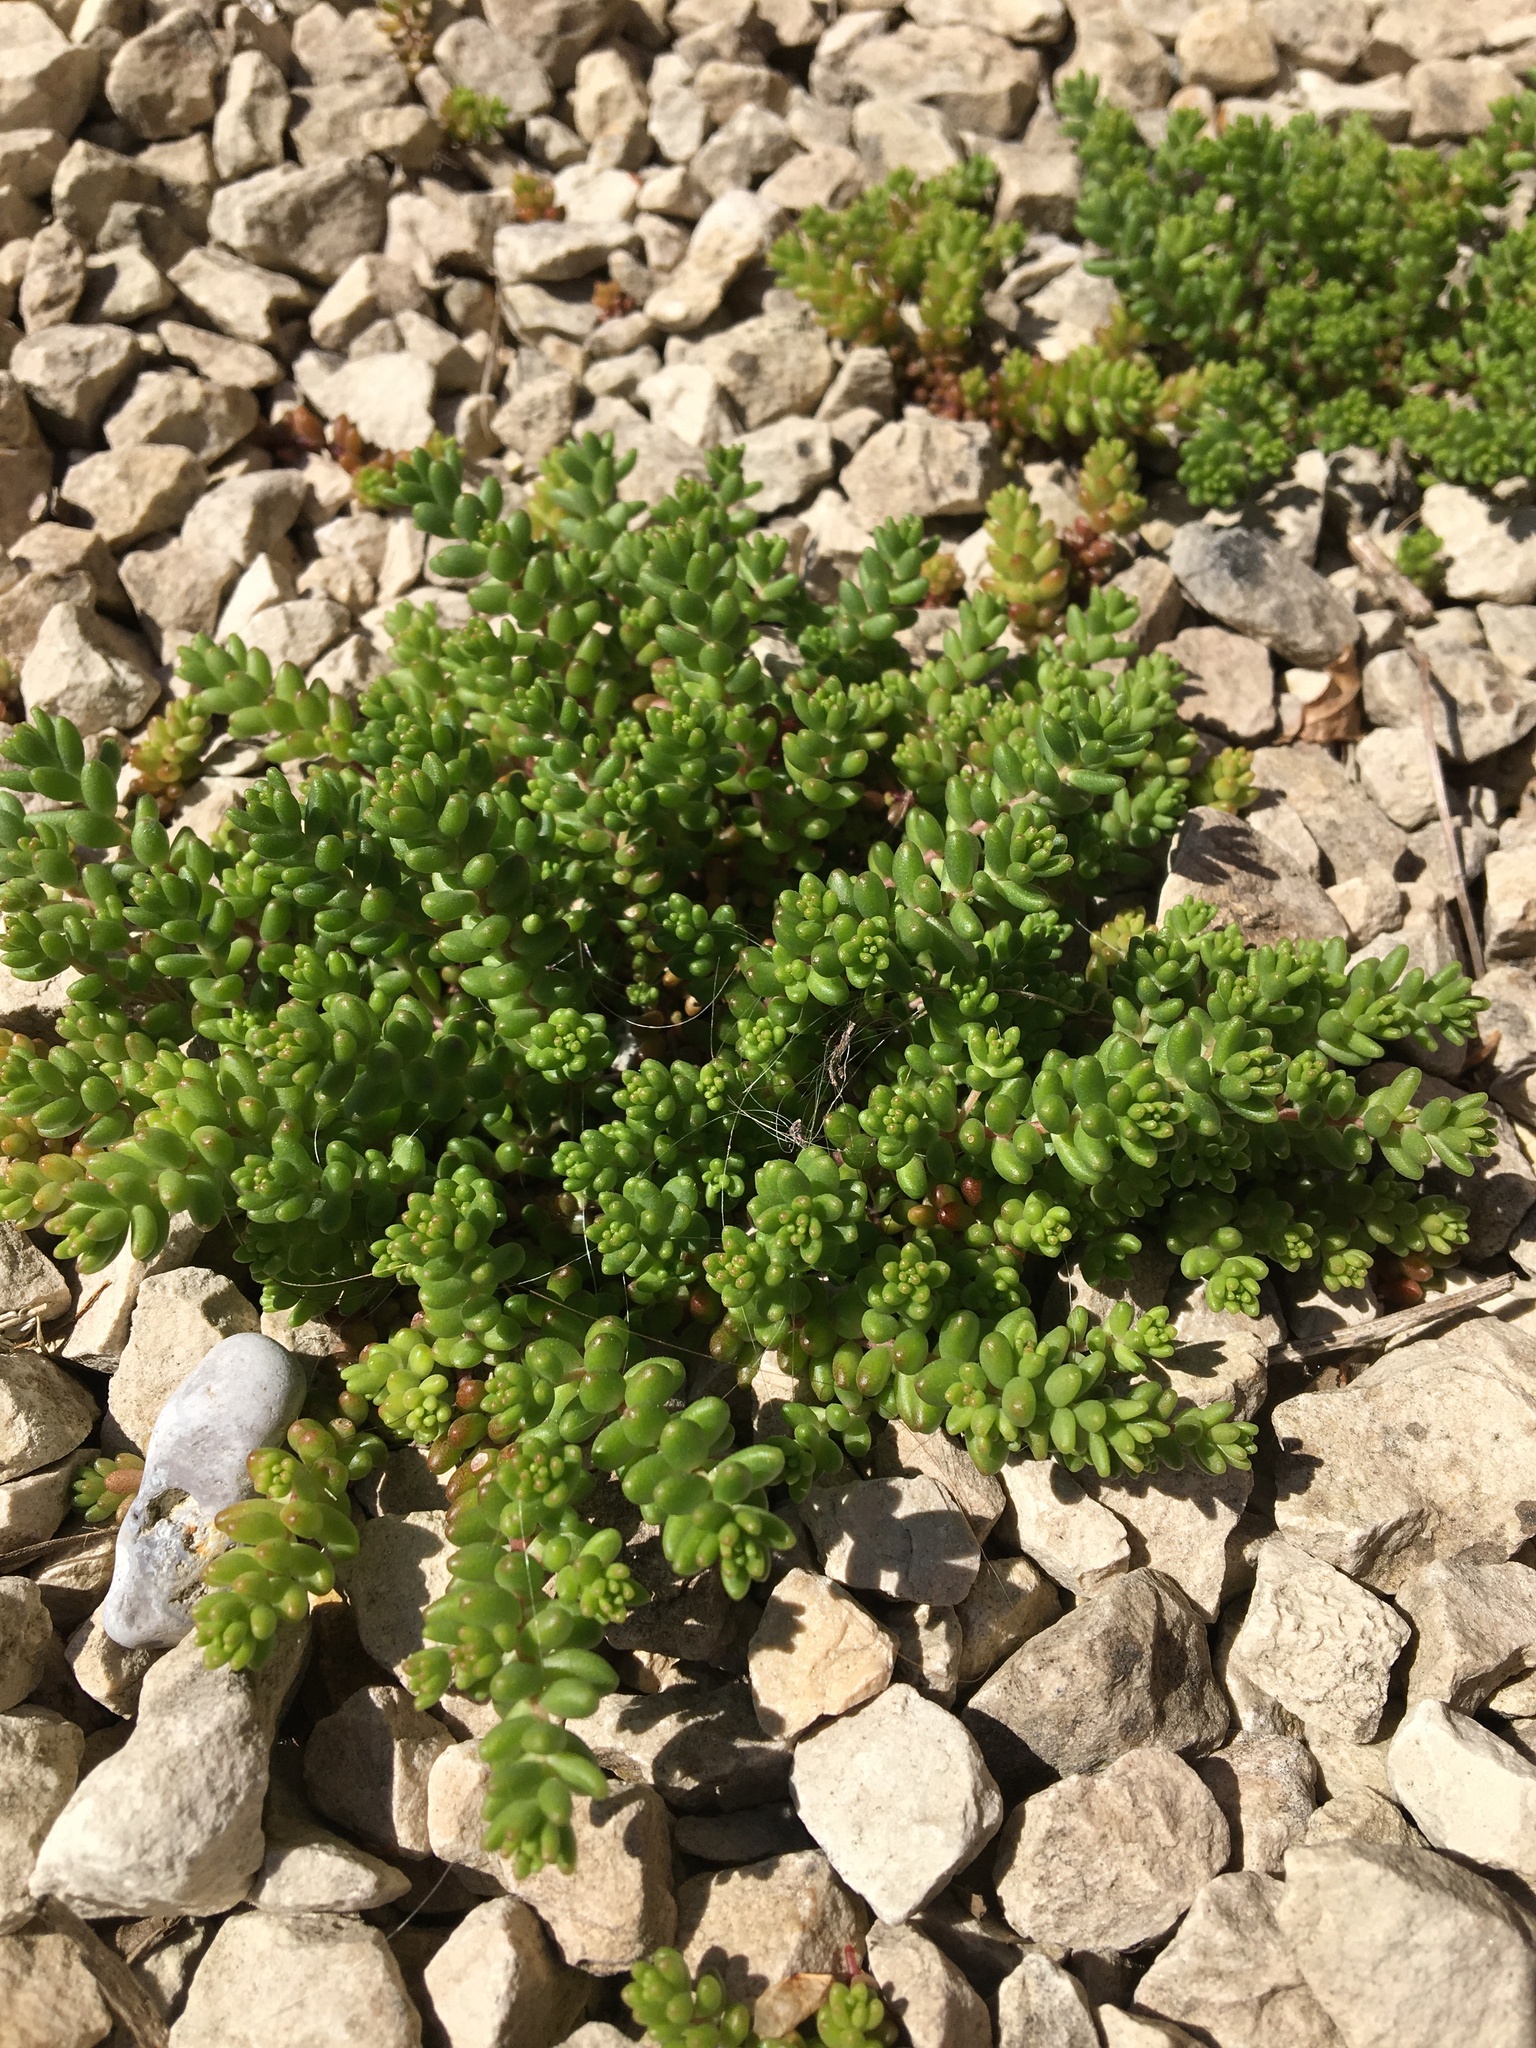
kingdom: Plantae
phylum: Tracheophyta
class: Magnoliopsida
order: Saxifragales
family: Crassulaceae
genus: Sedum
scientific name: Sedum album
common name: White stonecrop
